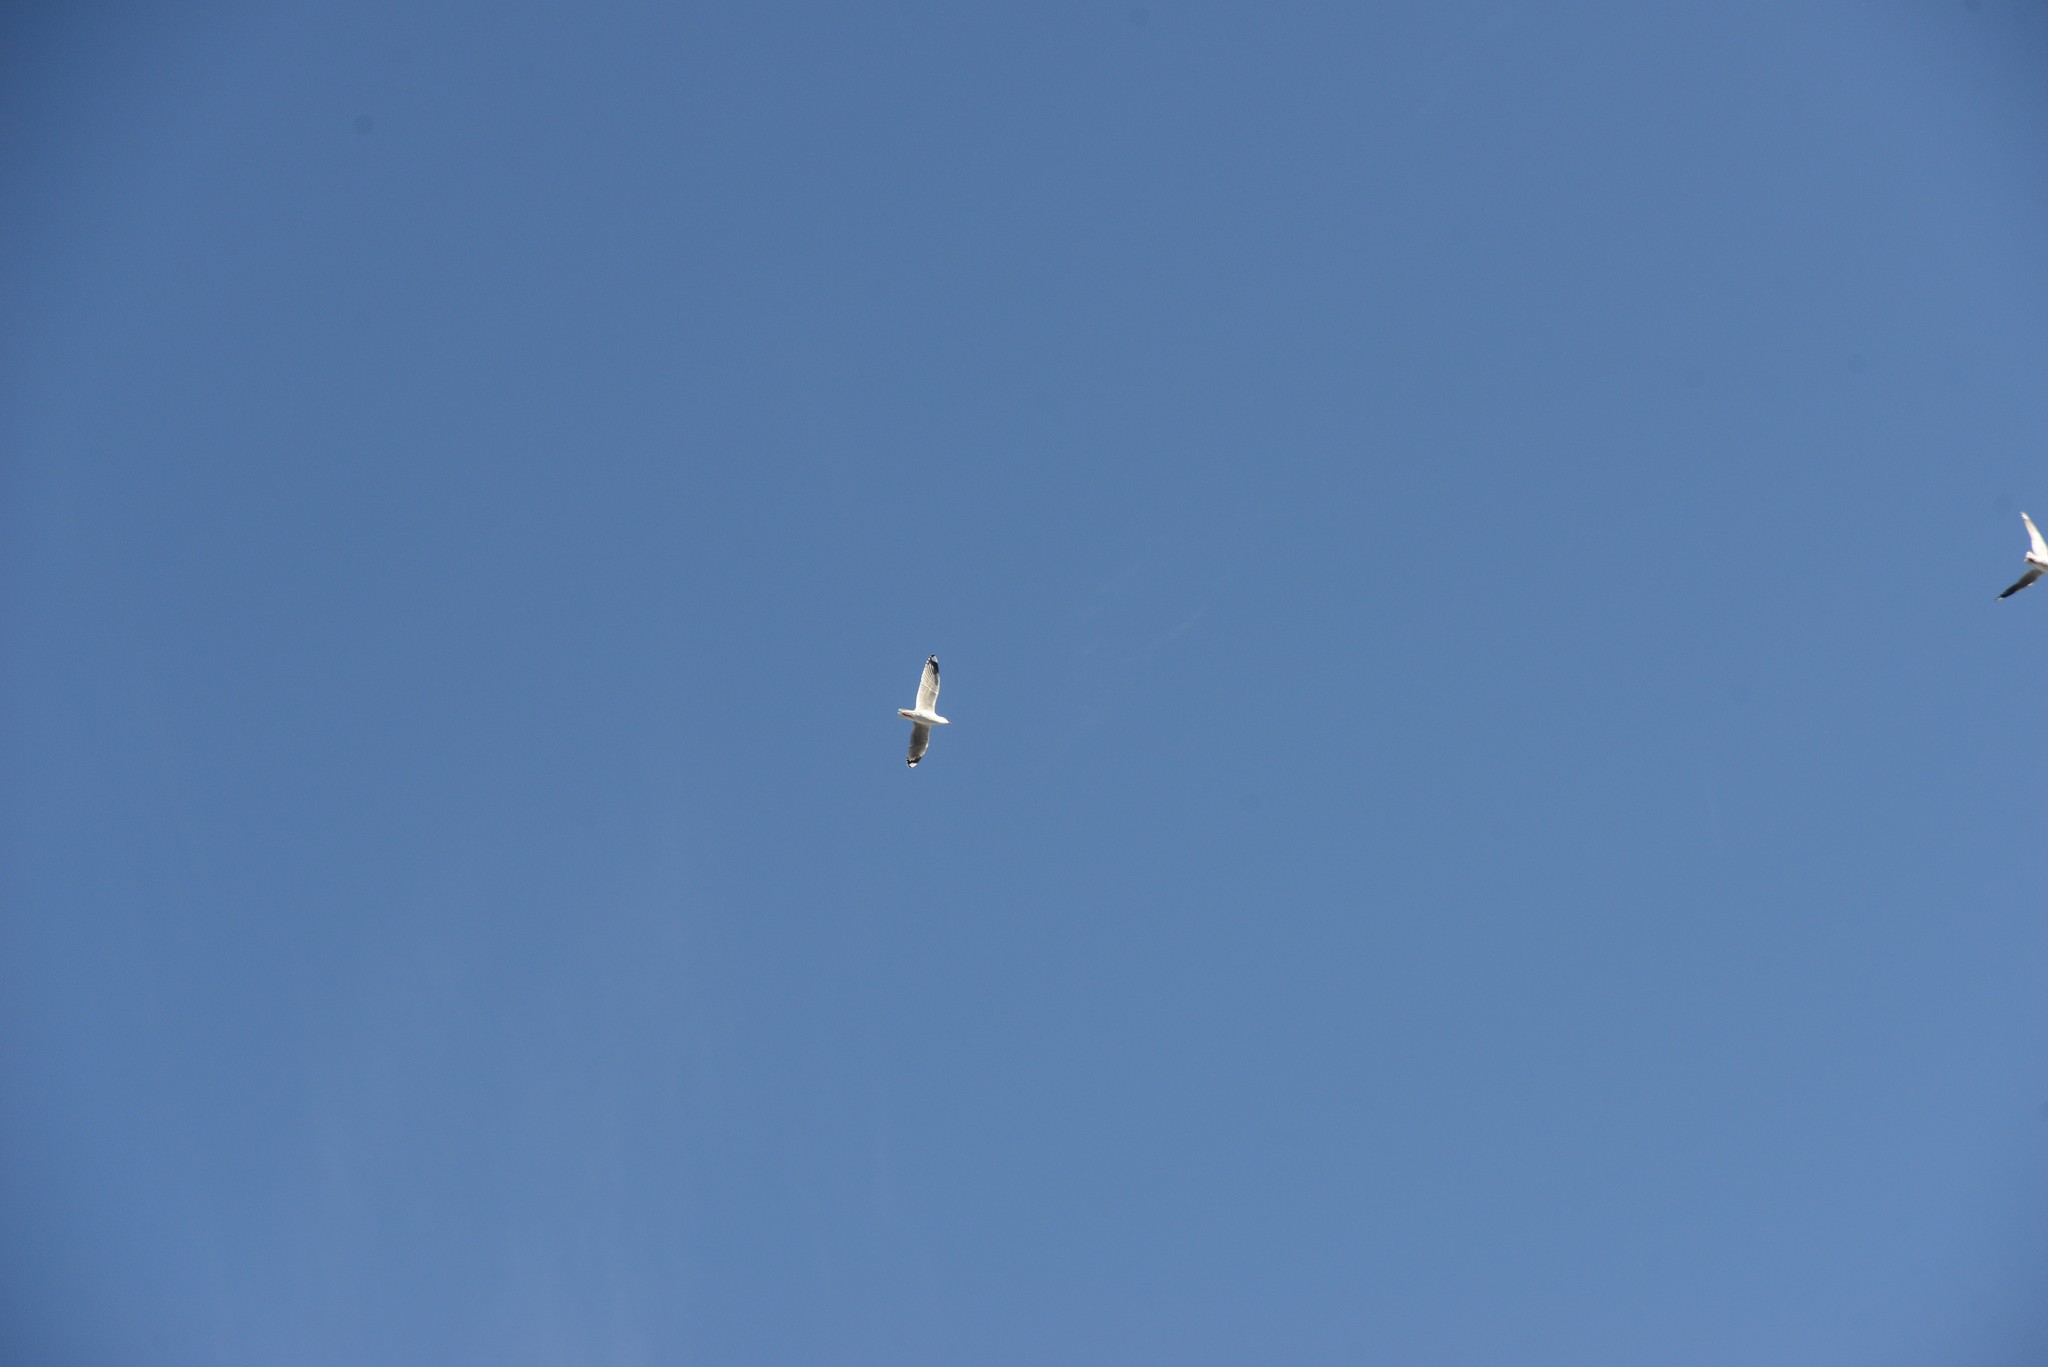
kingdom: Animalia
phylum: Chordata
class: Aves
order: Charadriiformes
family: Laridae
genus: Chroicocephalus
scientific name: Chroicocephalus novaehollandiae
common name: Silver gull
